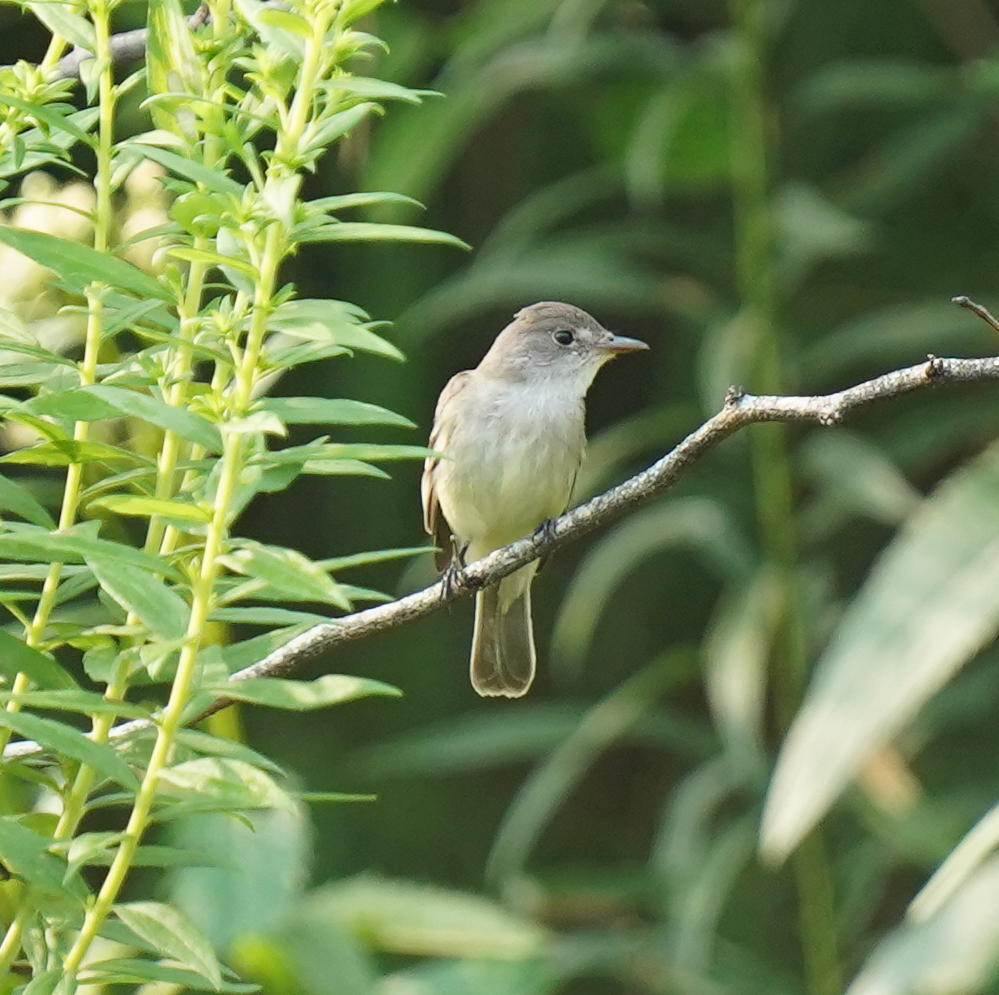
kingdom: Animalia
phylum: Chordata
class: Aves
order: Passeriformes
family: Tyrannidae
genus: Empidonax
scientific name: Empidonax traillii
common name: Willow flycatcher
